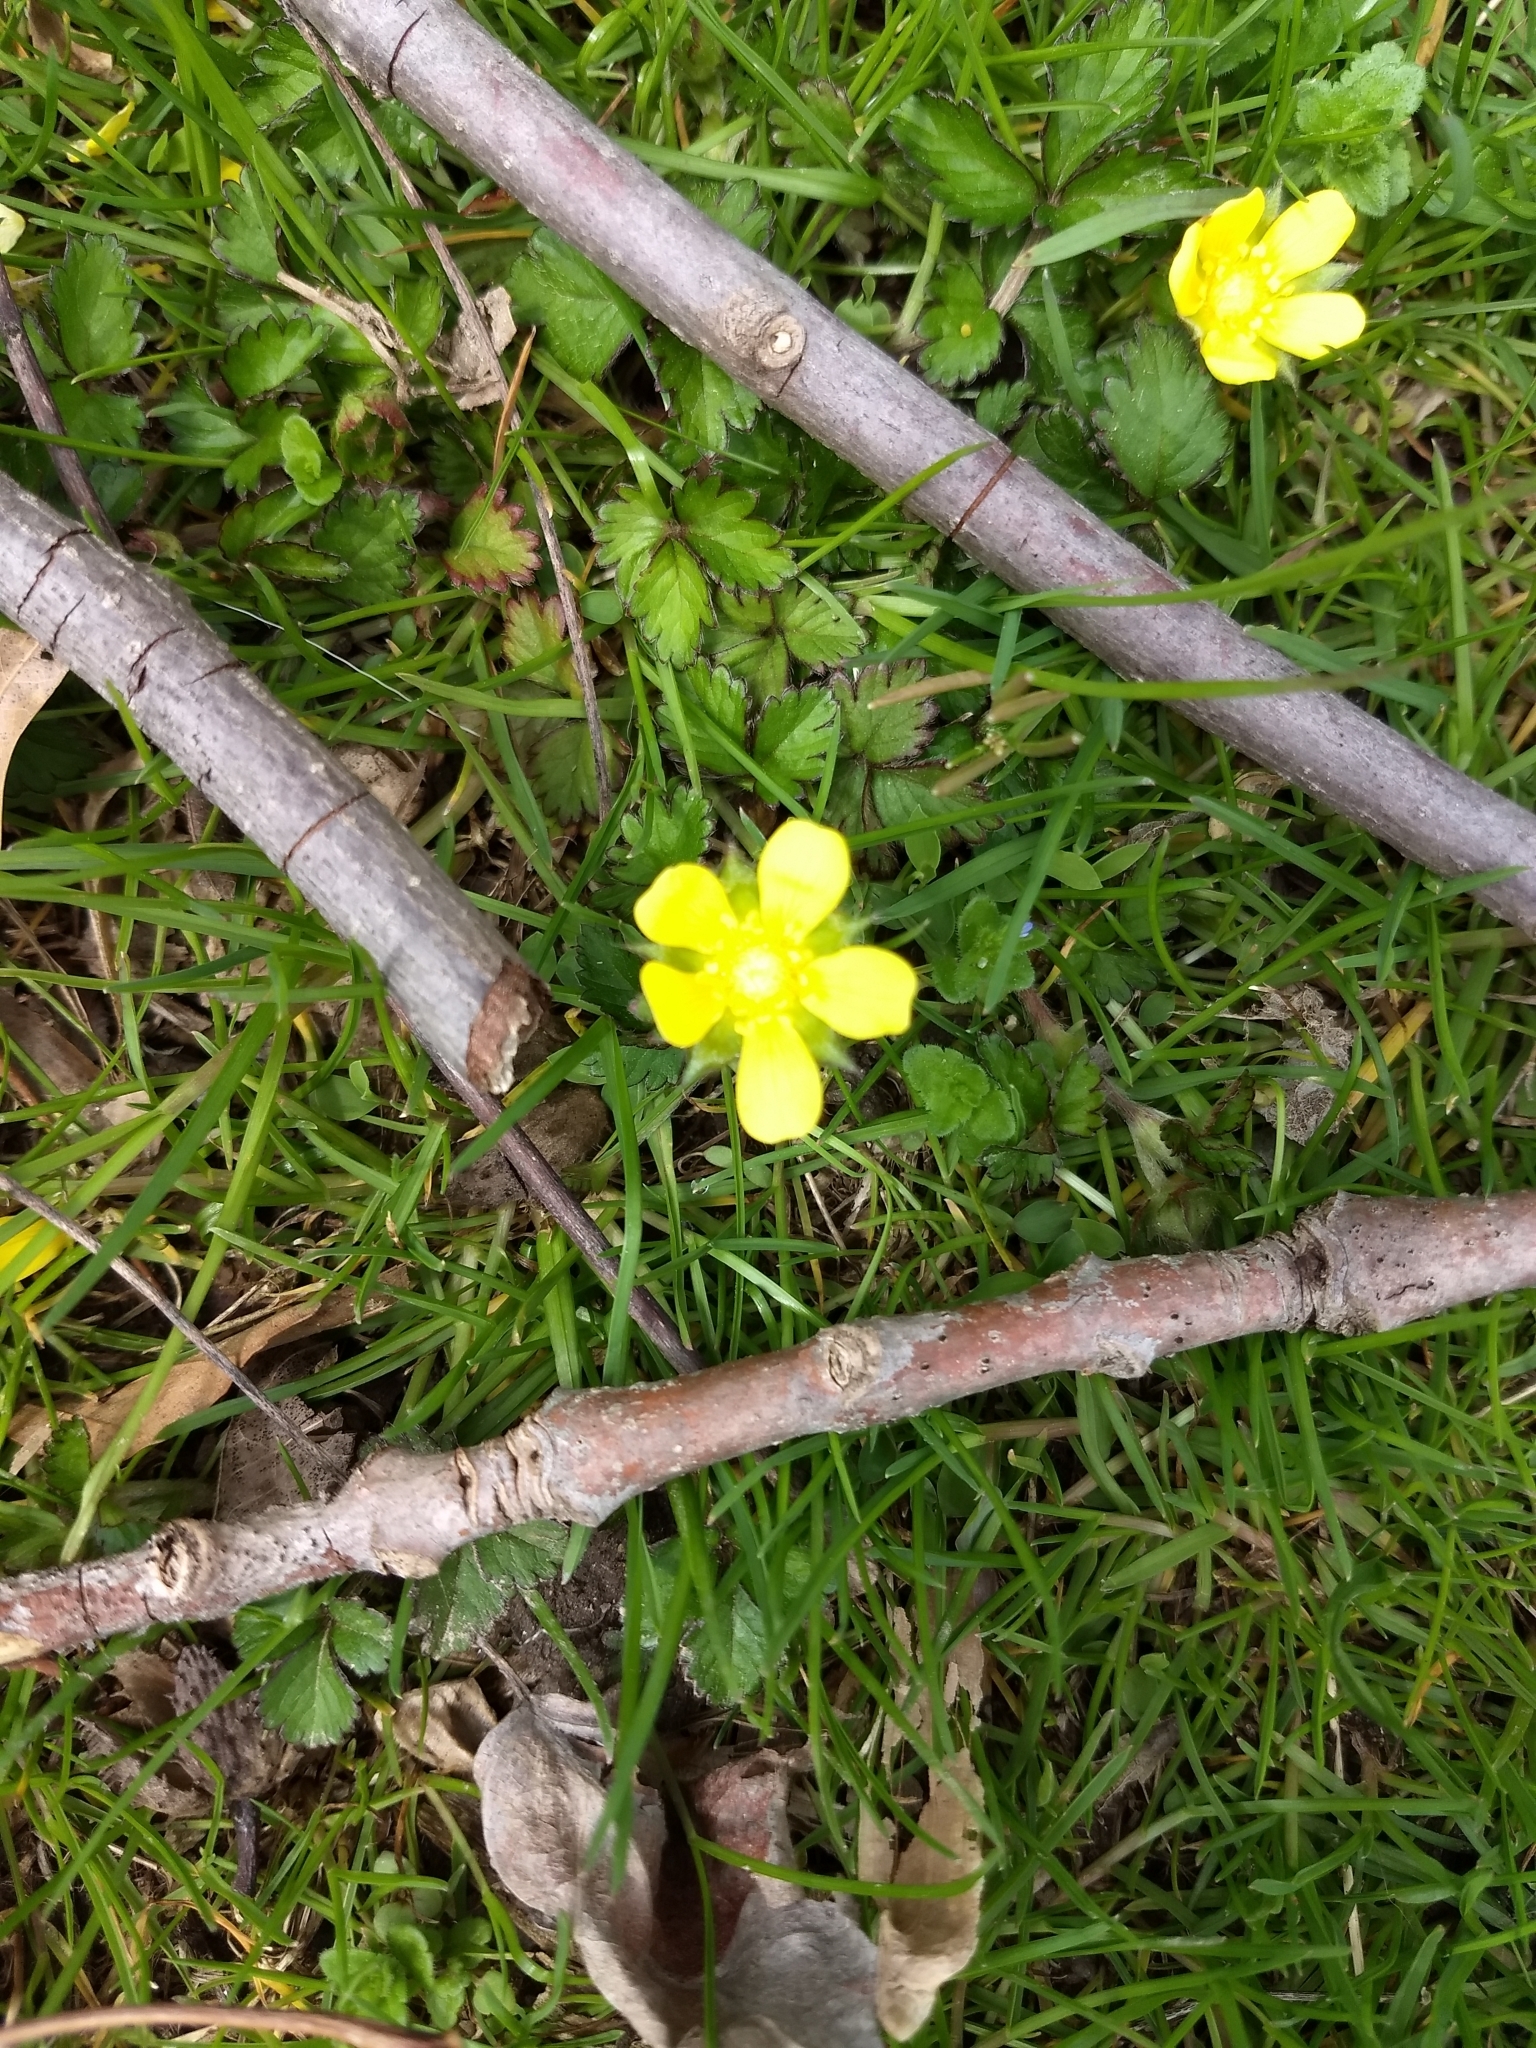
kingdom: Plantae
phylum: Tracheophyta
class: Magnoliopsida
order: Rosales
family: Rosaceae
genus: Potentilla
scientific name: Potentilla indica
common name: Yellow-flowered strawberry
